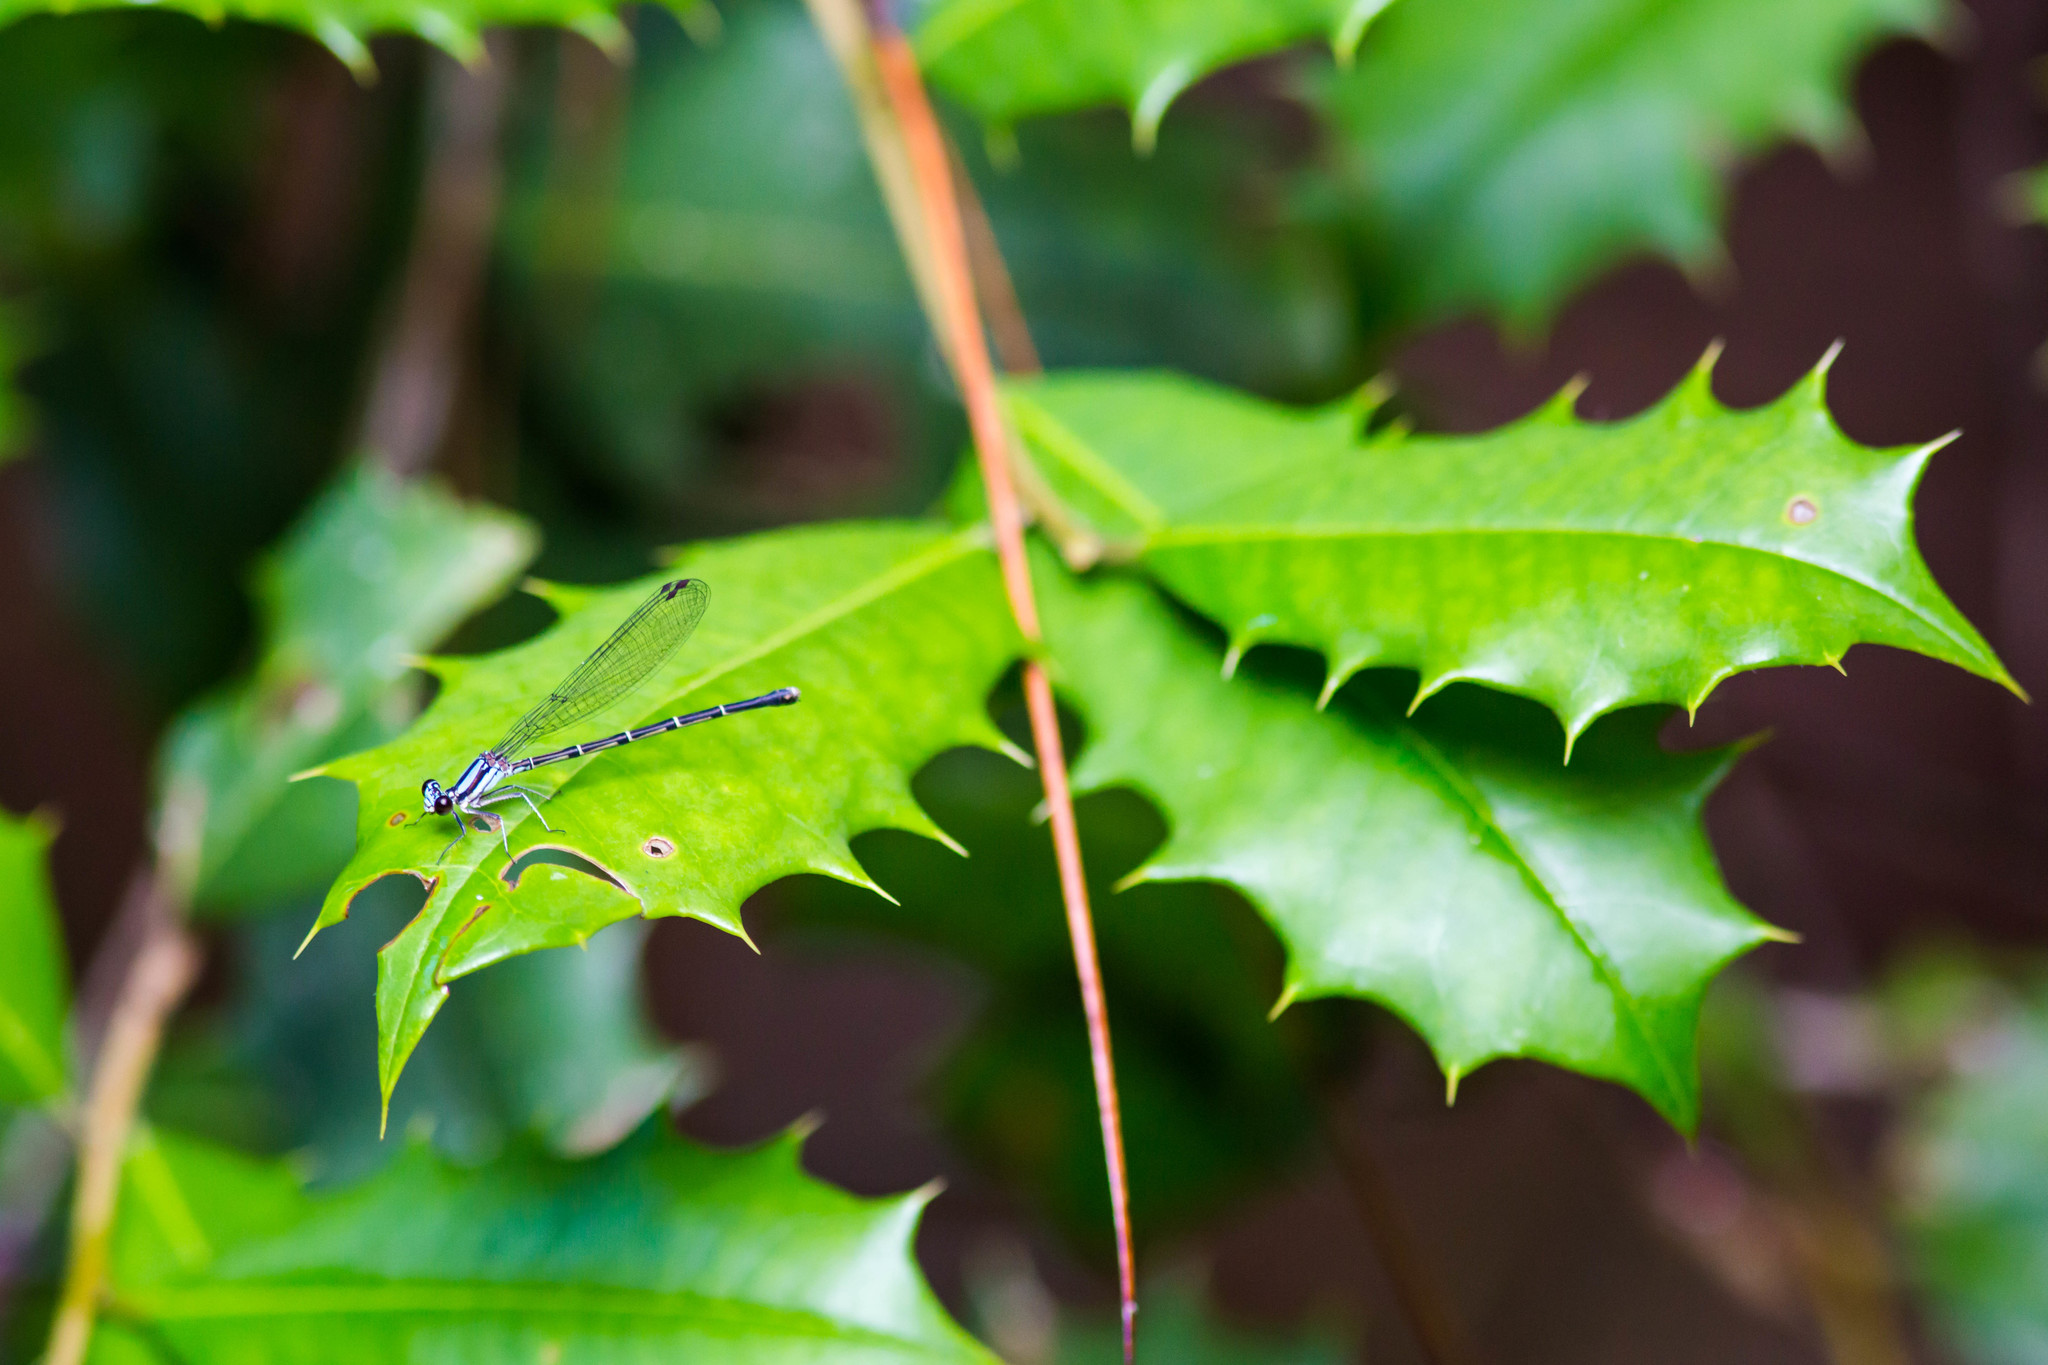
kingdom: Animalia
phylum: Arthropoda
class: Insecta
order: Odonata
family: Coenagrionidae
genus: Argia
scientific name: Argia moesta
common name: Powdered dancer
